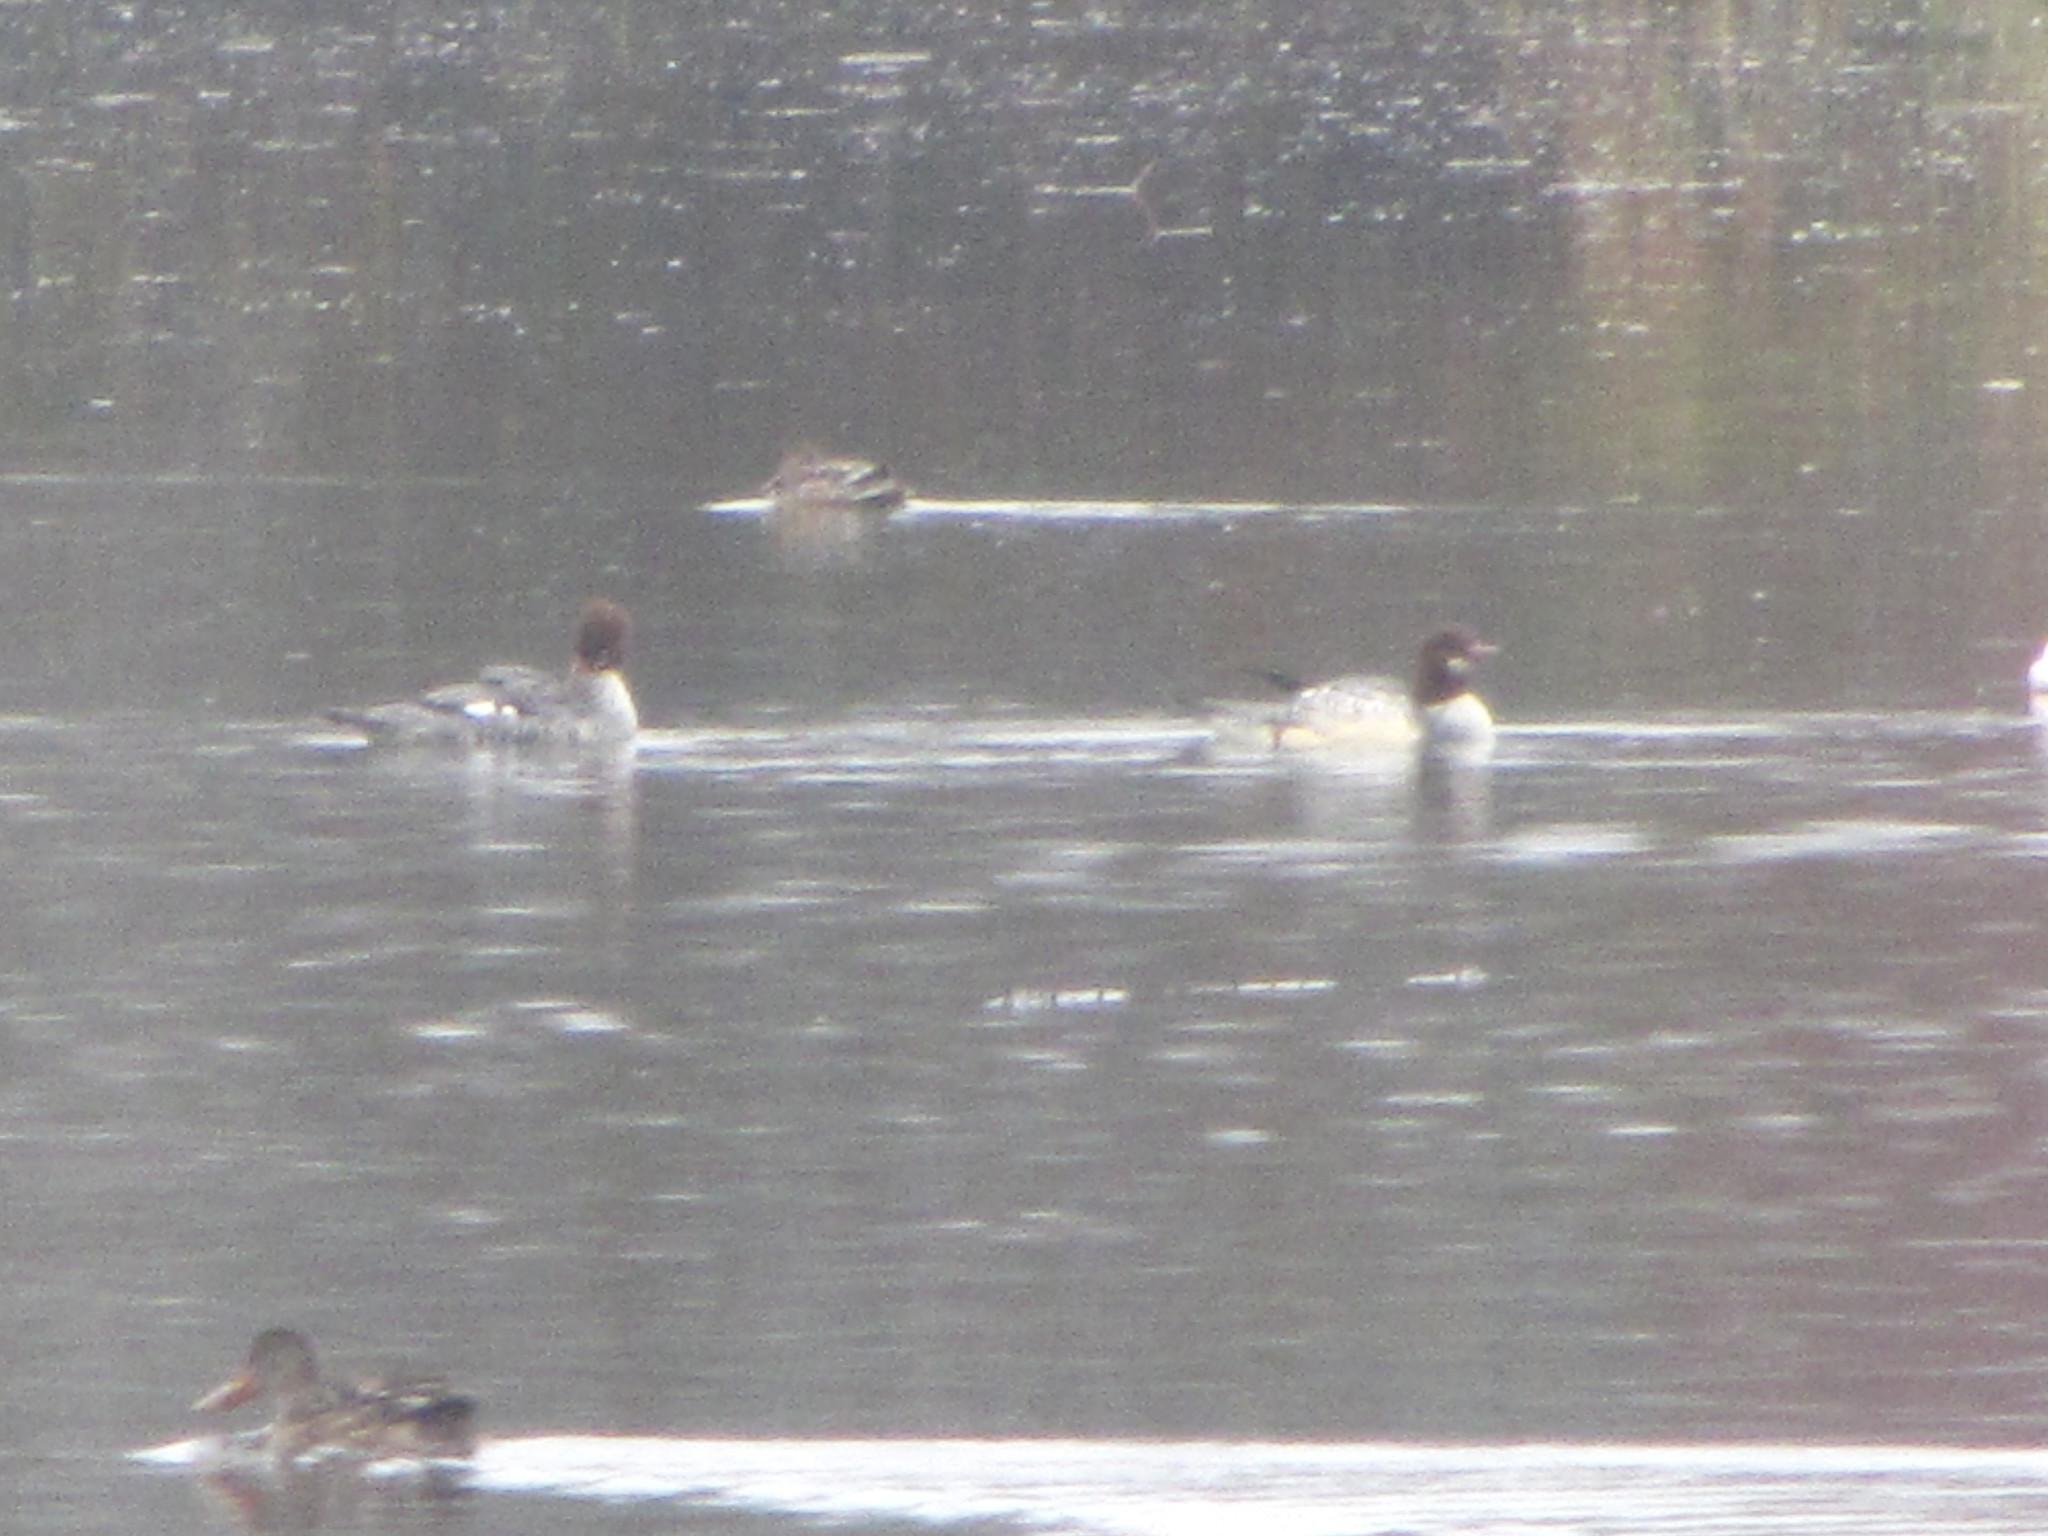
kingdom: Animalia
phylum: Chordata
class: Aves
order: Anseriformes
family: Anatidae
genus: Mergus
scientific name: Mergus merganser
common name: Common merganser
